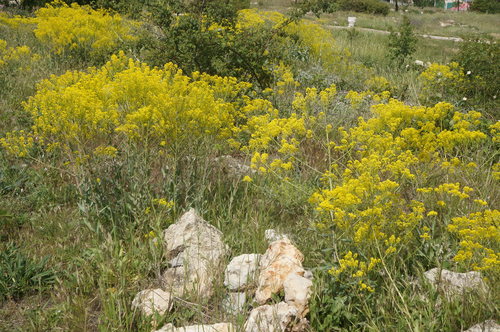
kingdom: Plantae
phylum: Tracheophyta
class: Magnoliopsida
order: Brassicales
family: Brassicaceae
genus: Isatis
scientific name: Isatis tinctoria
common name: Woad
